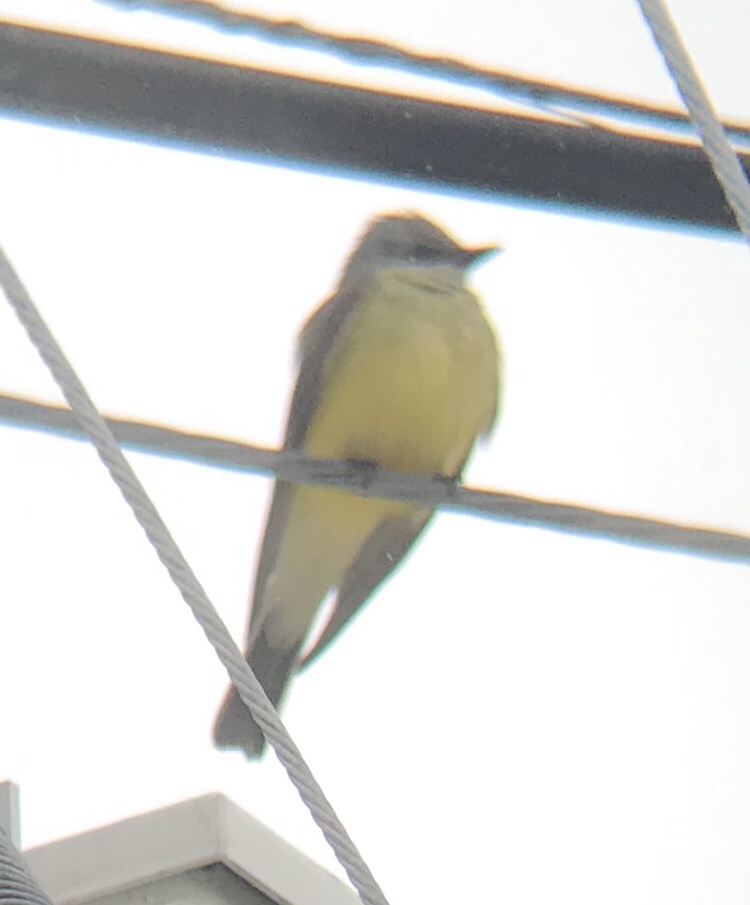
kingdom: Animalia
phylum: Chordata
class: Aves
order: Passeriformes
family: Tyrannidae
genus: Tyrannus
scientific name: Tyrannus verticalis
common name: Western kingbird
